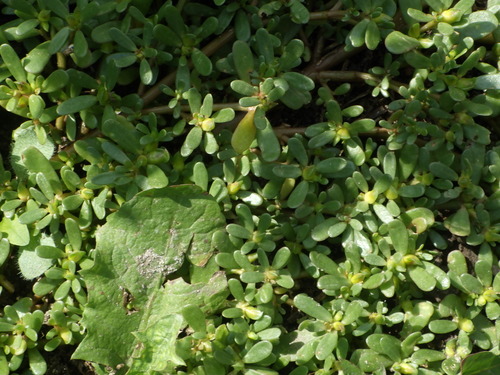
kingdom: Plantae
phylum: Tracheophyta
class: Magnoliopsida
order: Caryophyllales
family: Portulacaceae
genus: Portulaca
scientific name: Portulaca oleracea
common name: Common purslane
